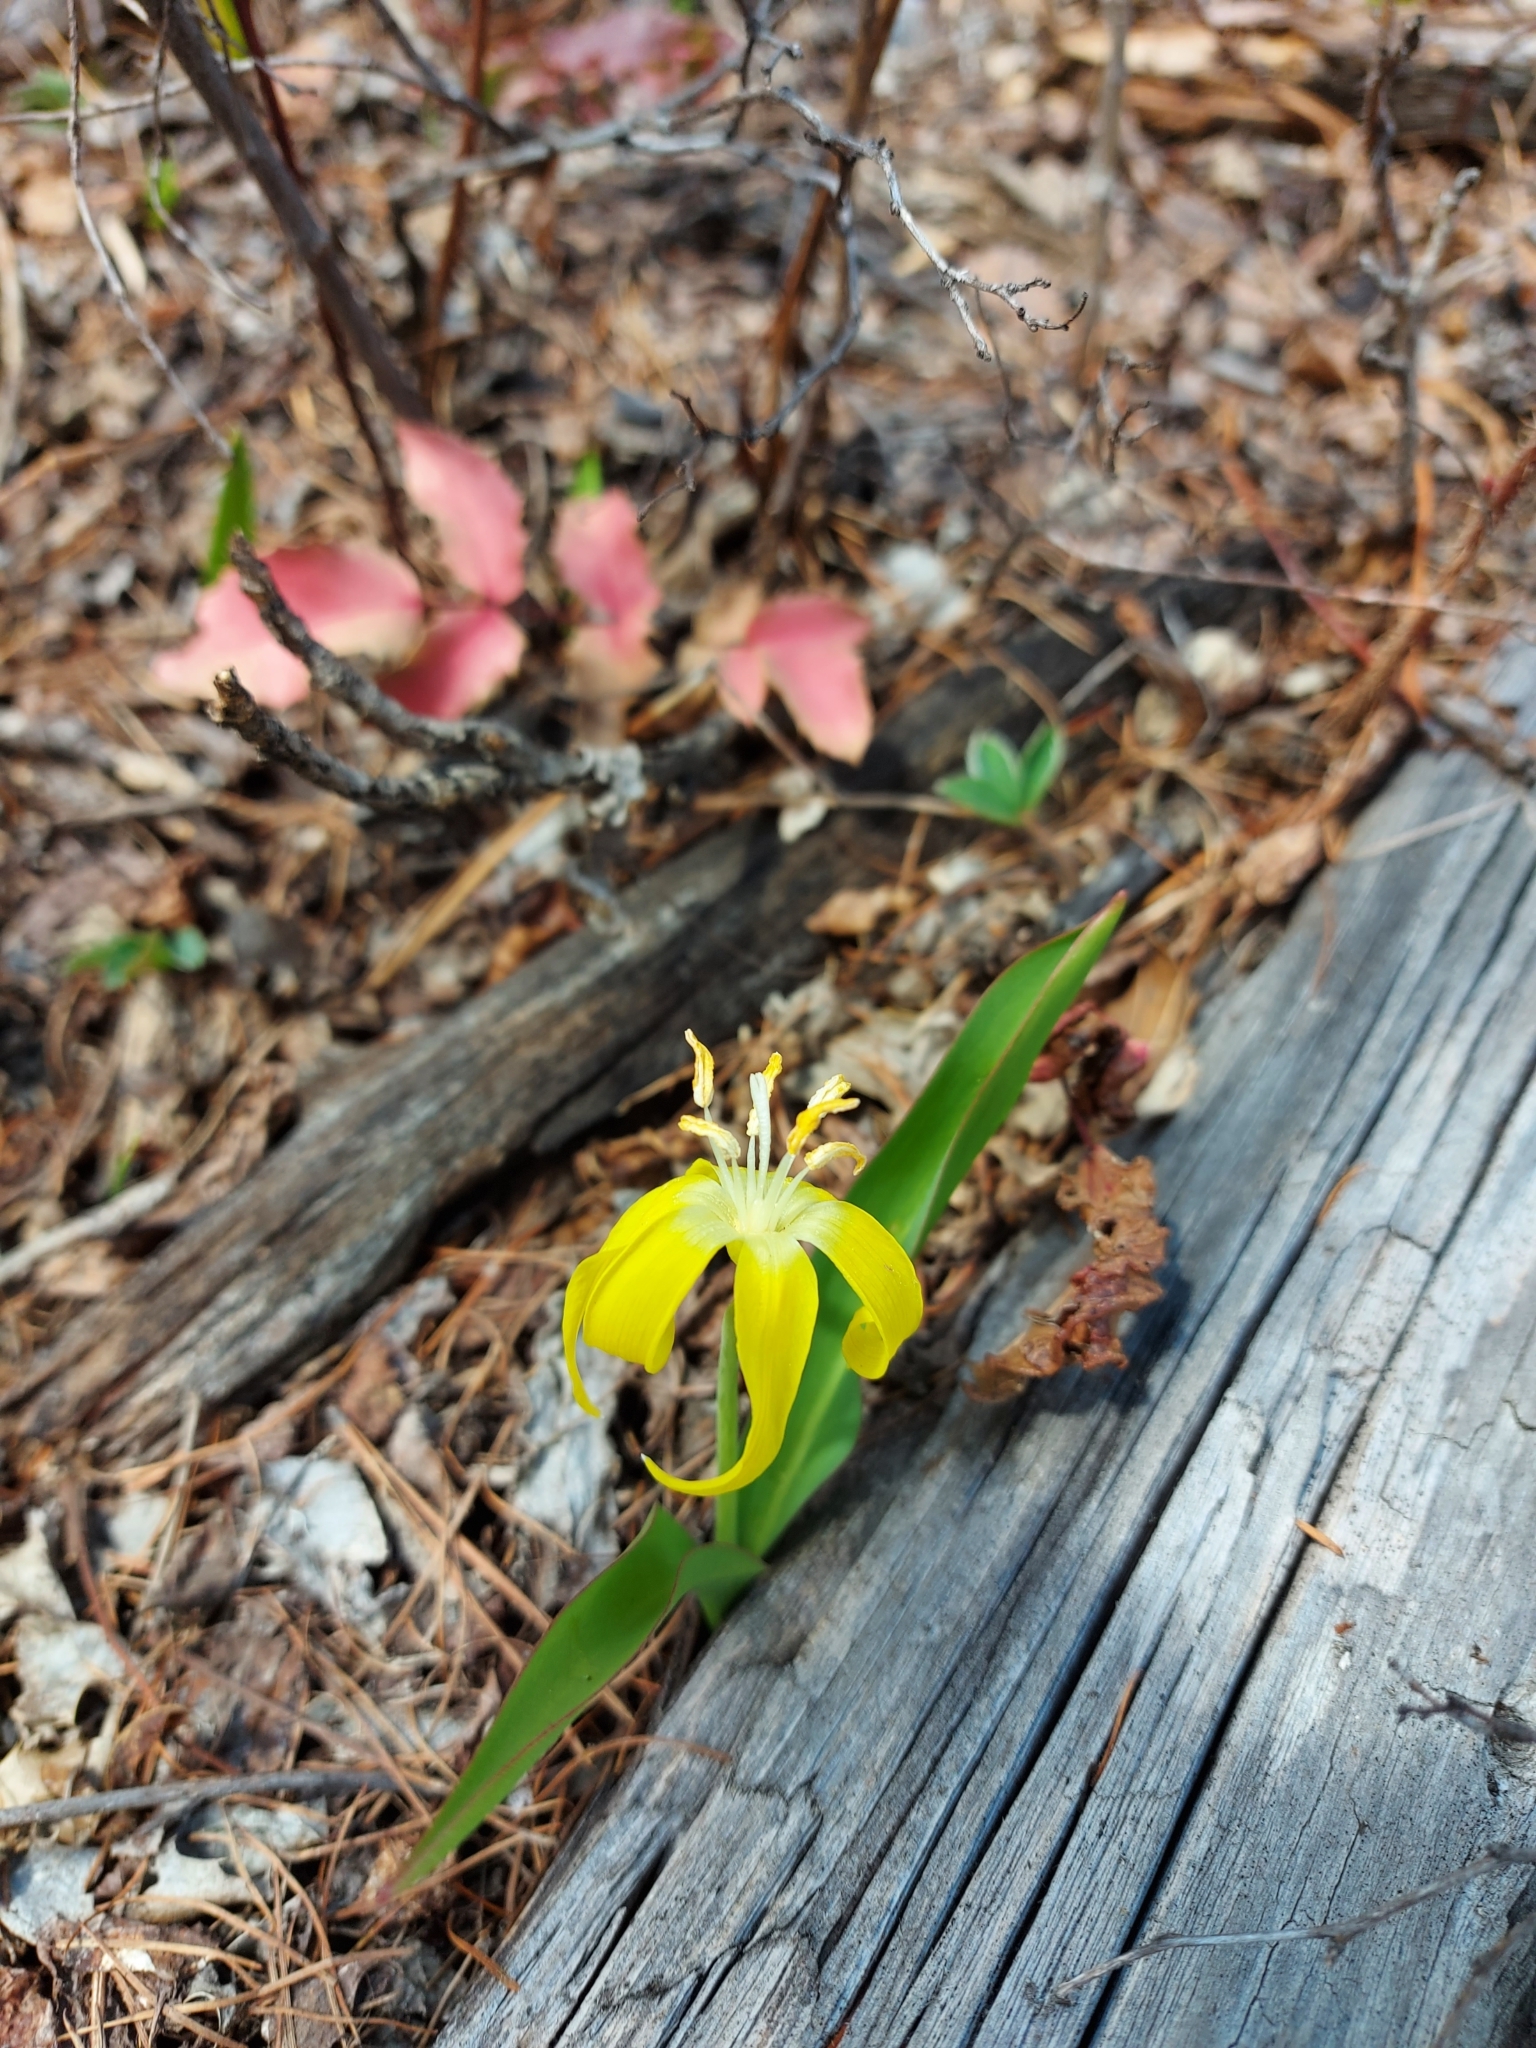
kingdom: Plantae
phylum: Tracheophyta
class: Liliopsida
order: Liliales
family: Liliaceae
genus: Erythronium
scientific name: Erythronium grandiflorum
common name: Avalanche-lily
